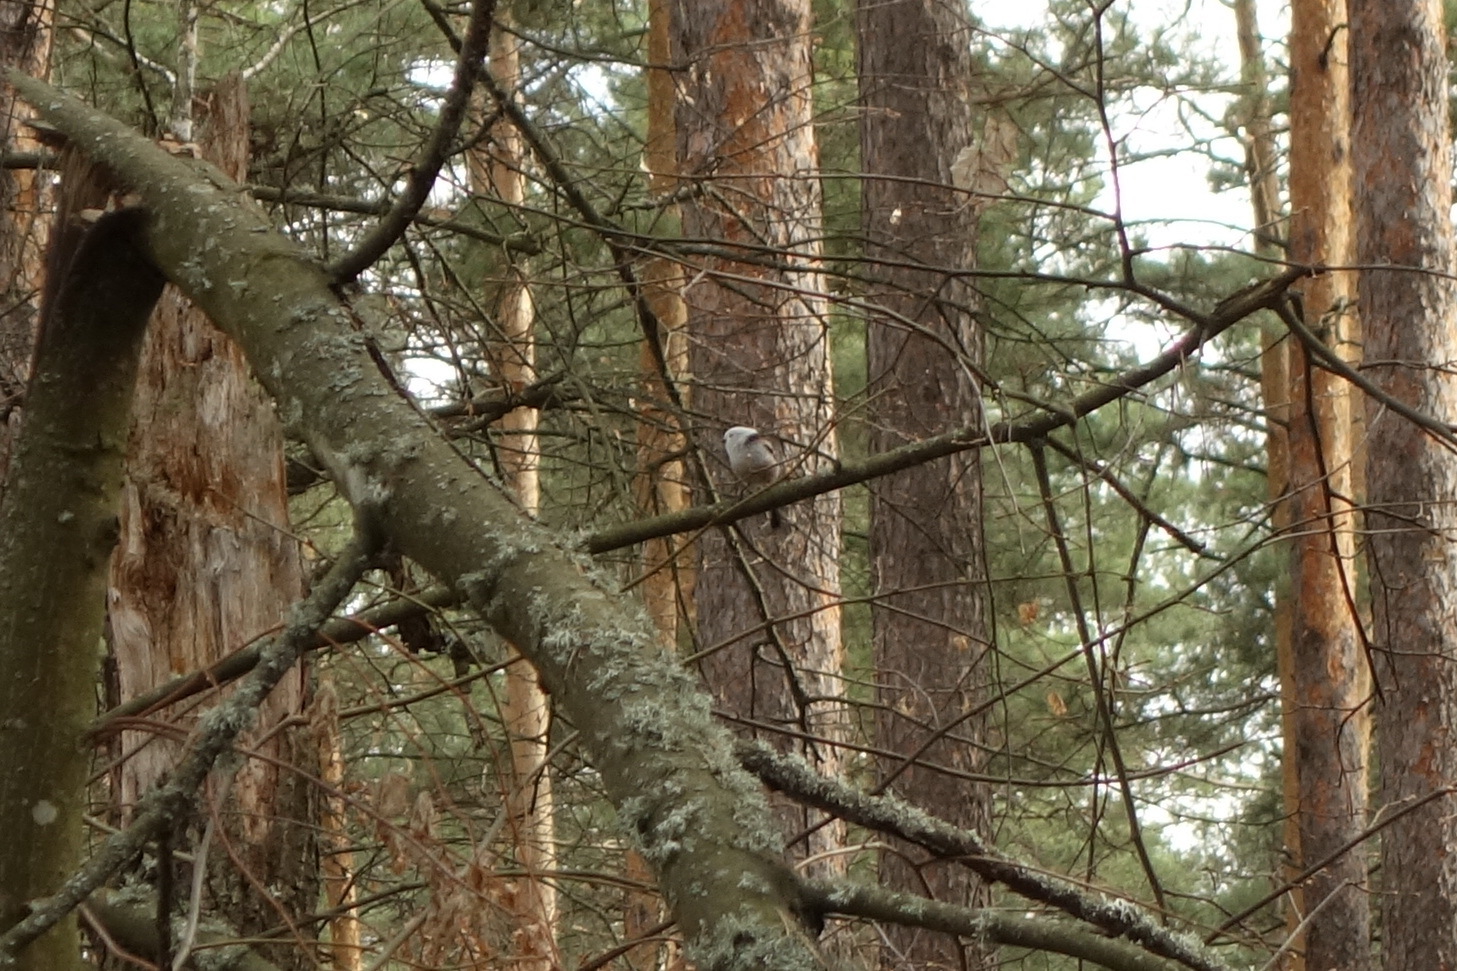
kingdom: Animalia
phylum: Chordata
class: Aves
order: Passeriformes
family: Aegithalidae
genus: Aegithalos
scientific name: Aegithalos caudatus
